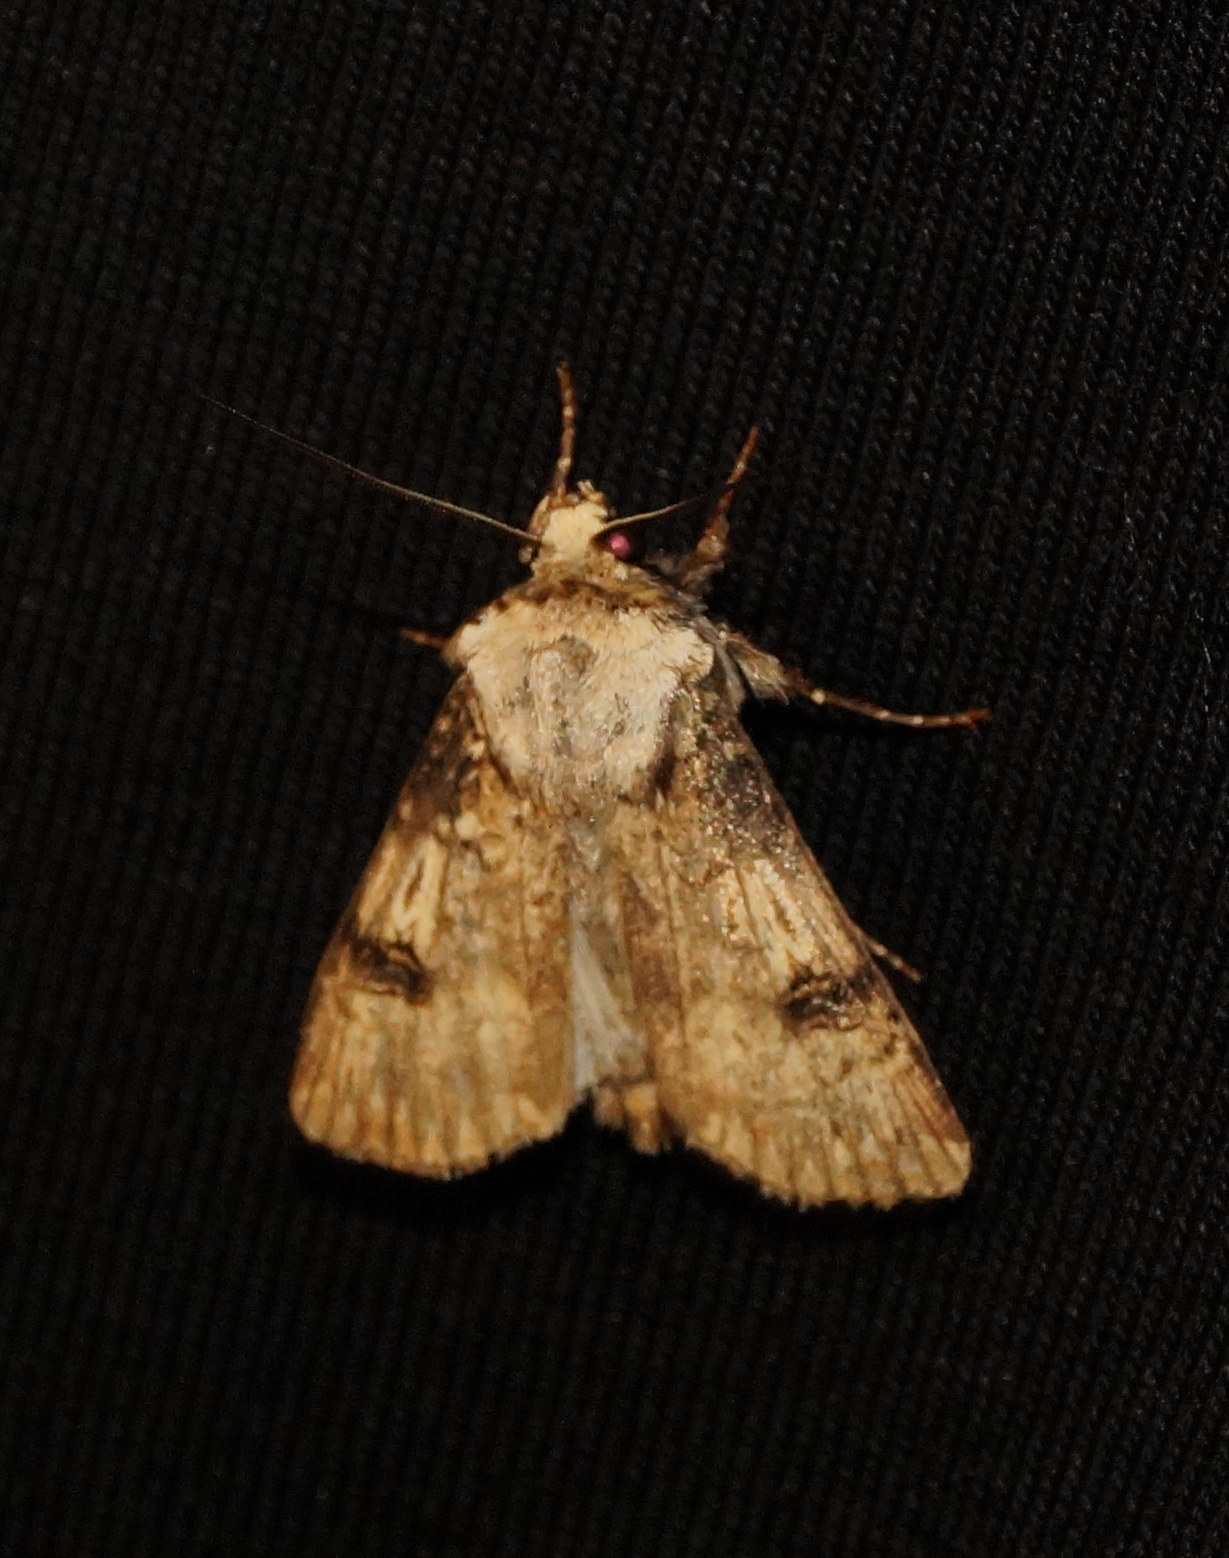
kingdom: Animalia
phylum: Arthropoda
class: Insecta
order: Lepidoptera
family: Noctuidae
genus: Agrotis
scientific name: Agrotis puta
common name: Shuttle-shaped dart
